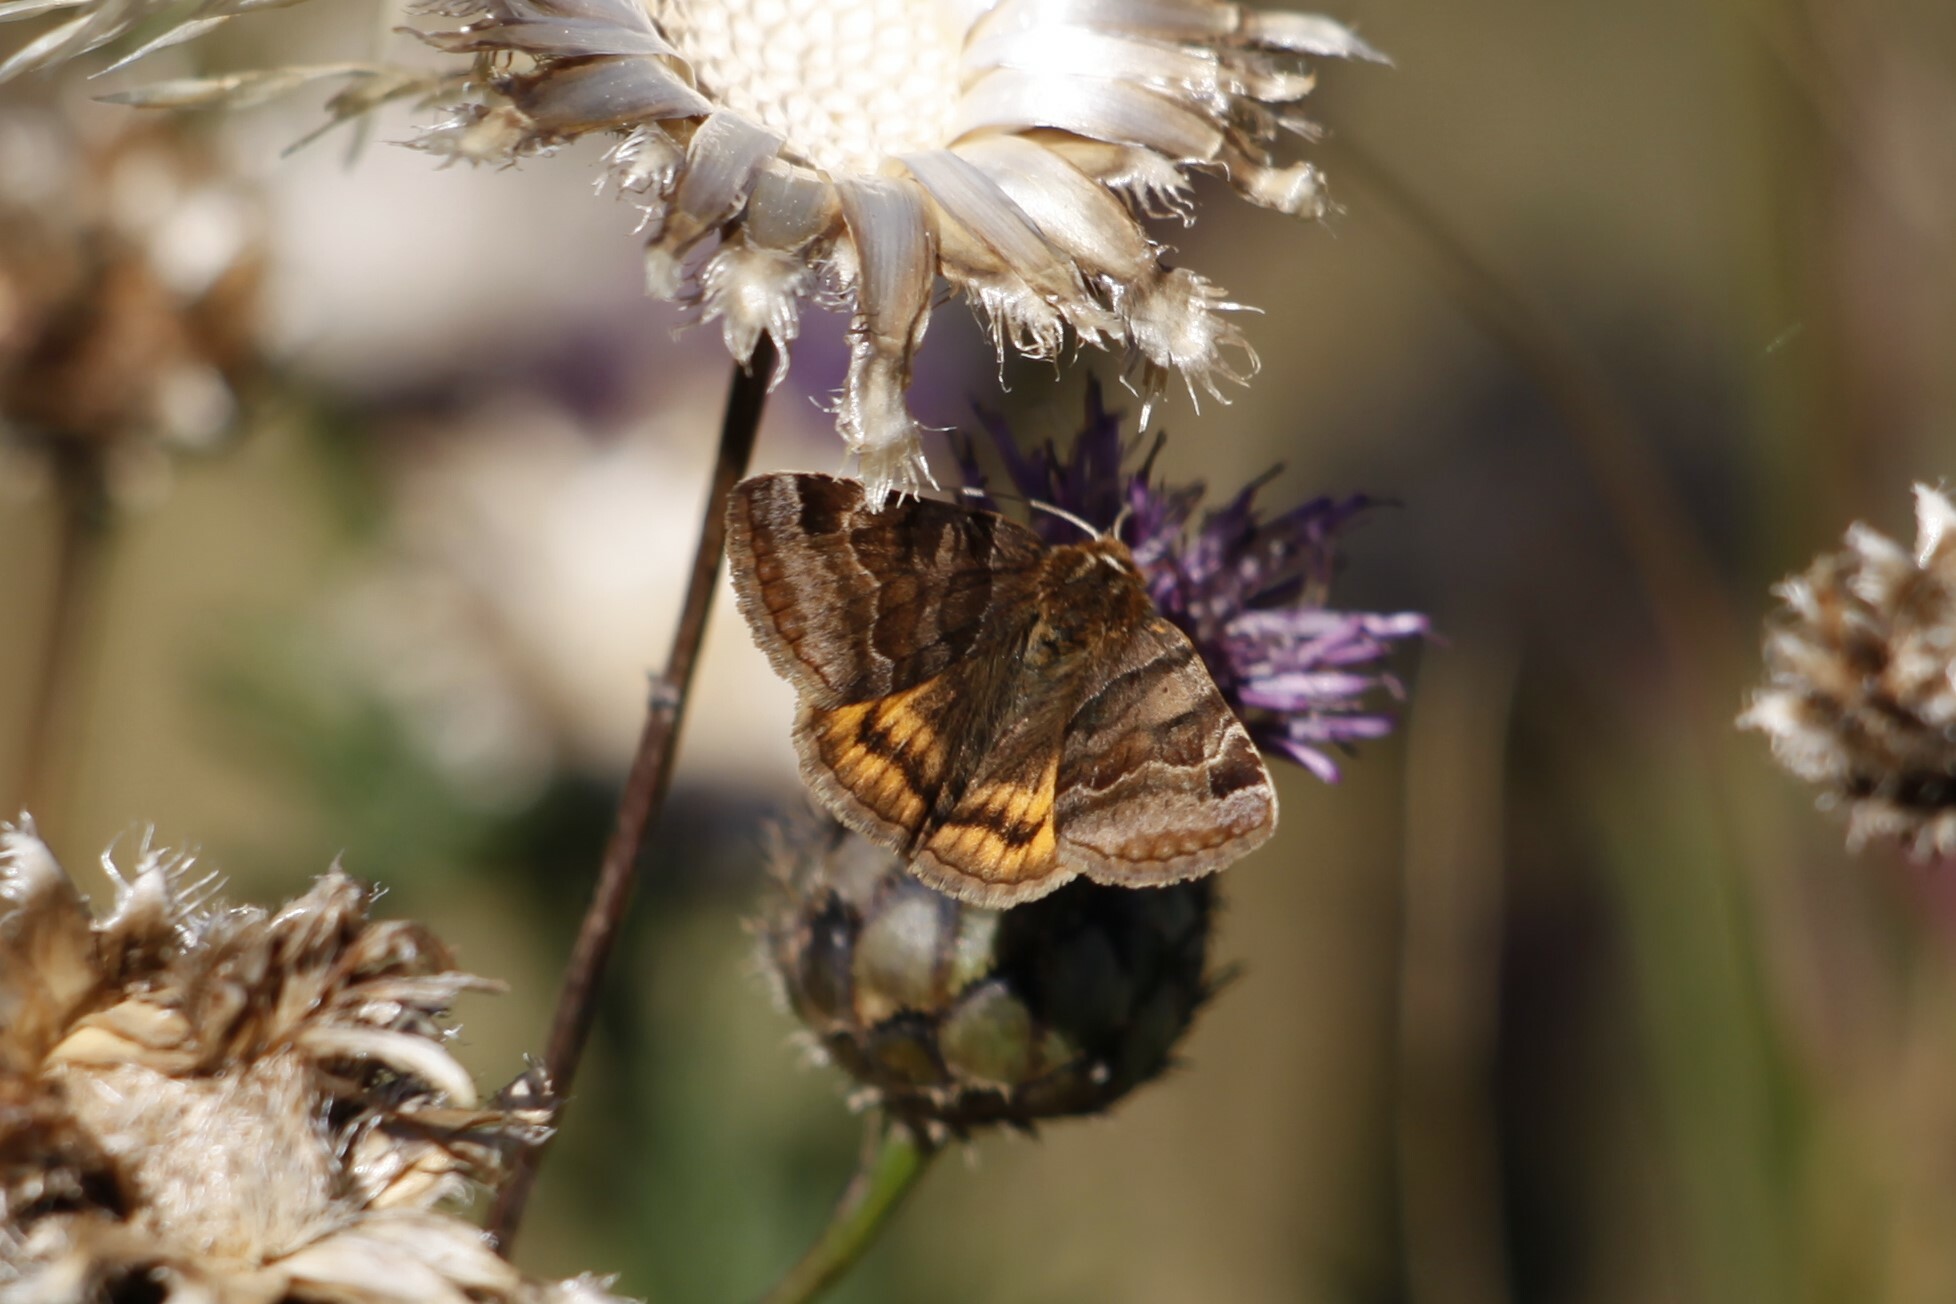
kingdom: Animalia
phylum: Arthropoda
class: Insecta
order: Lepidoptera
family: Erebidae
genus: Euclidia
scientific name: Euclidia glyphica
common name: Burnet companion
